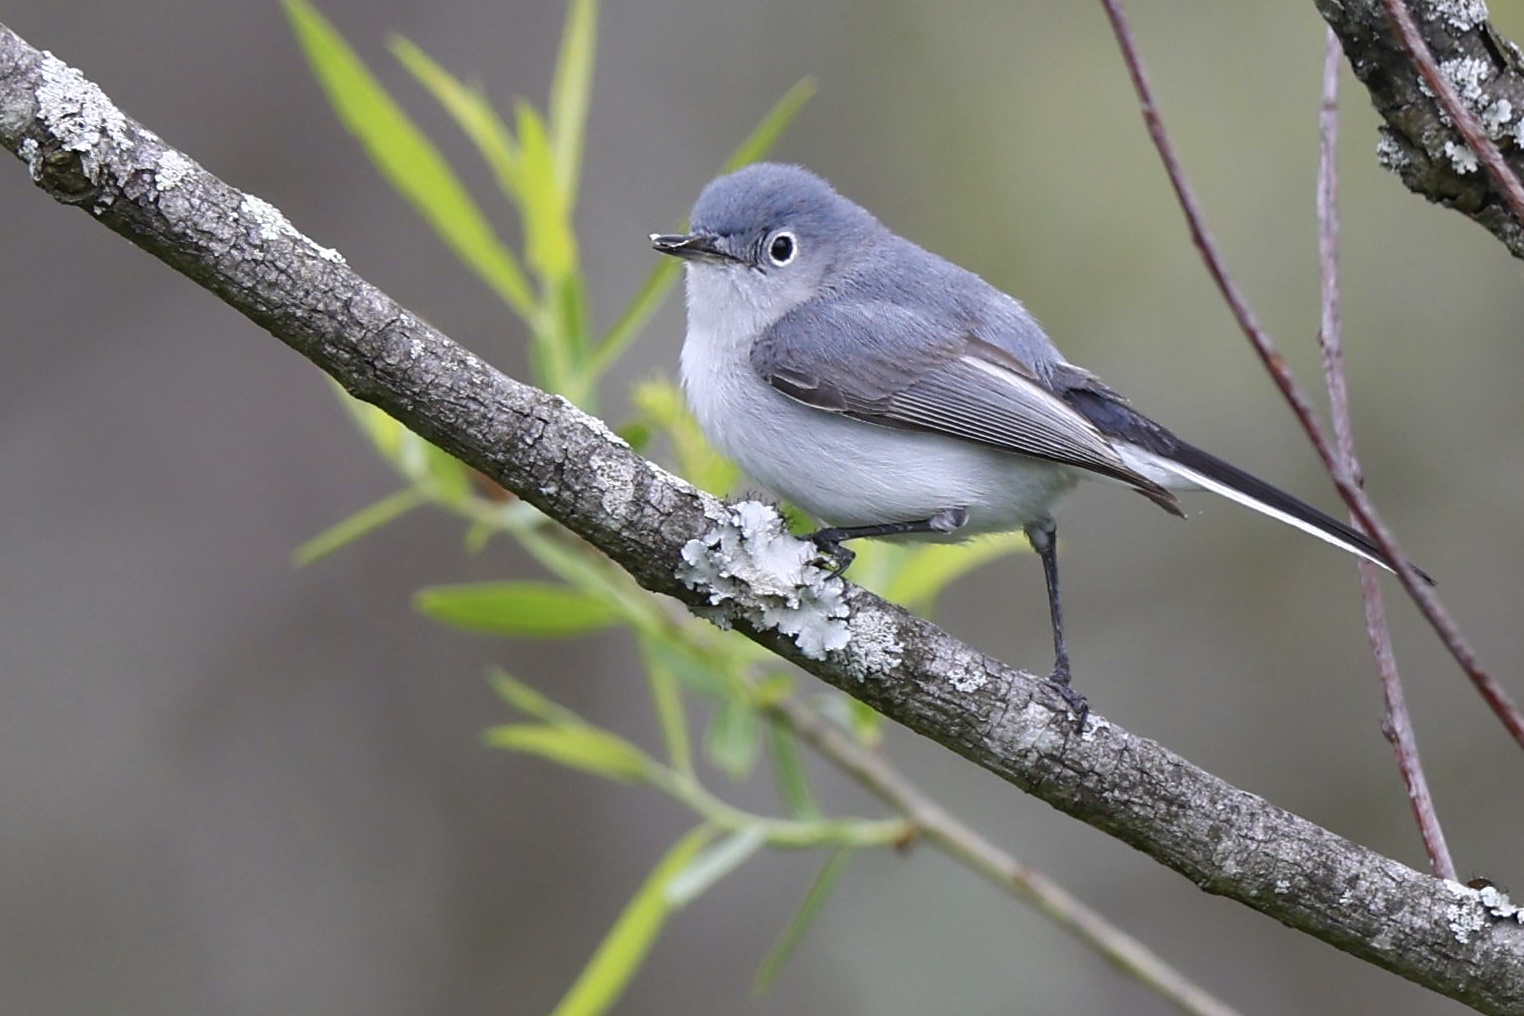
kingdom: Animalia
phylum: Chordata
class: Aves
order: Passeriformes
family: Polioptilidae
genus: Polioptila
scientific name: Polioptila caerulea
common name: Blue-gray gnatcatcher
